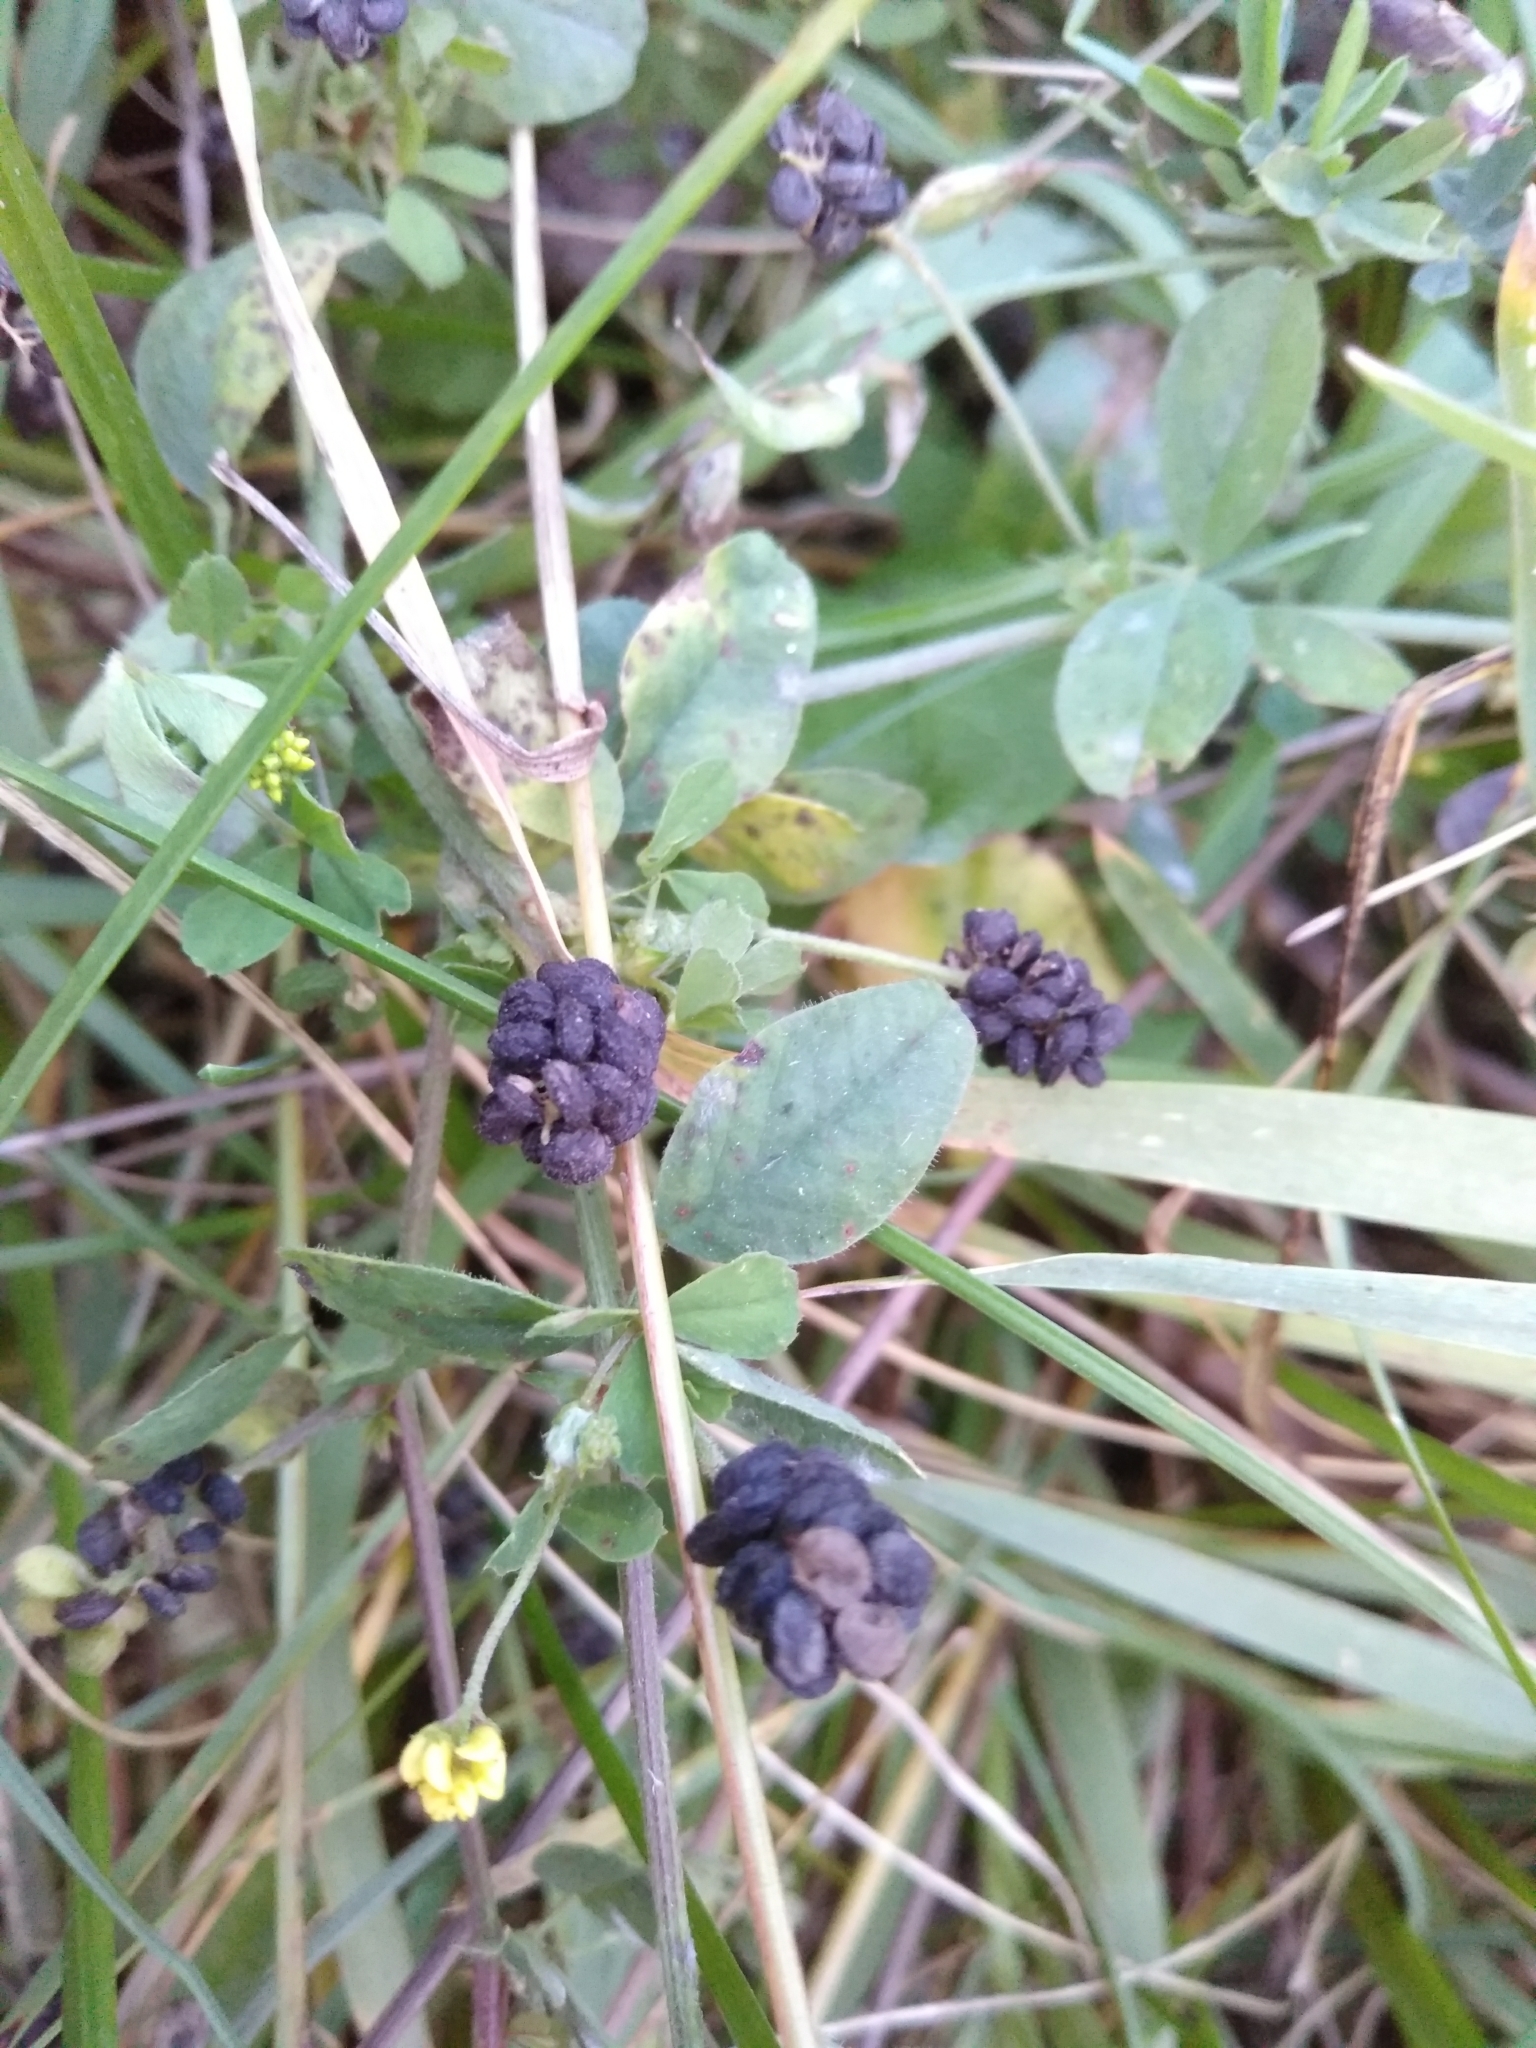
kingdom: Plantae
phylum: Tracheophyta
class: Magnoliopsida
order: Fabales
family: Fabaceae
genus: Medicago
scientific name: Medicago lupulina
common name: Black medick
